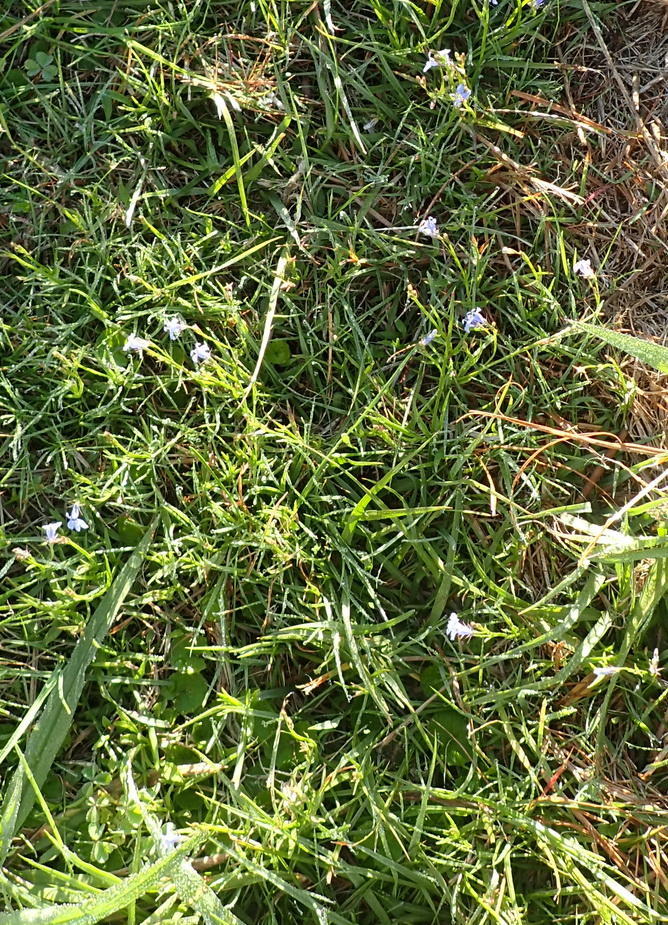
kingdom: Plantae
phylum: Tracheophyta
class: Magnoliopsida
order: Asterales
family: Campanulaceae
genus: Lobelia
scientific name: Lobelia flaccida
